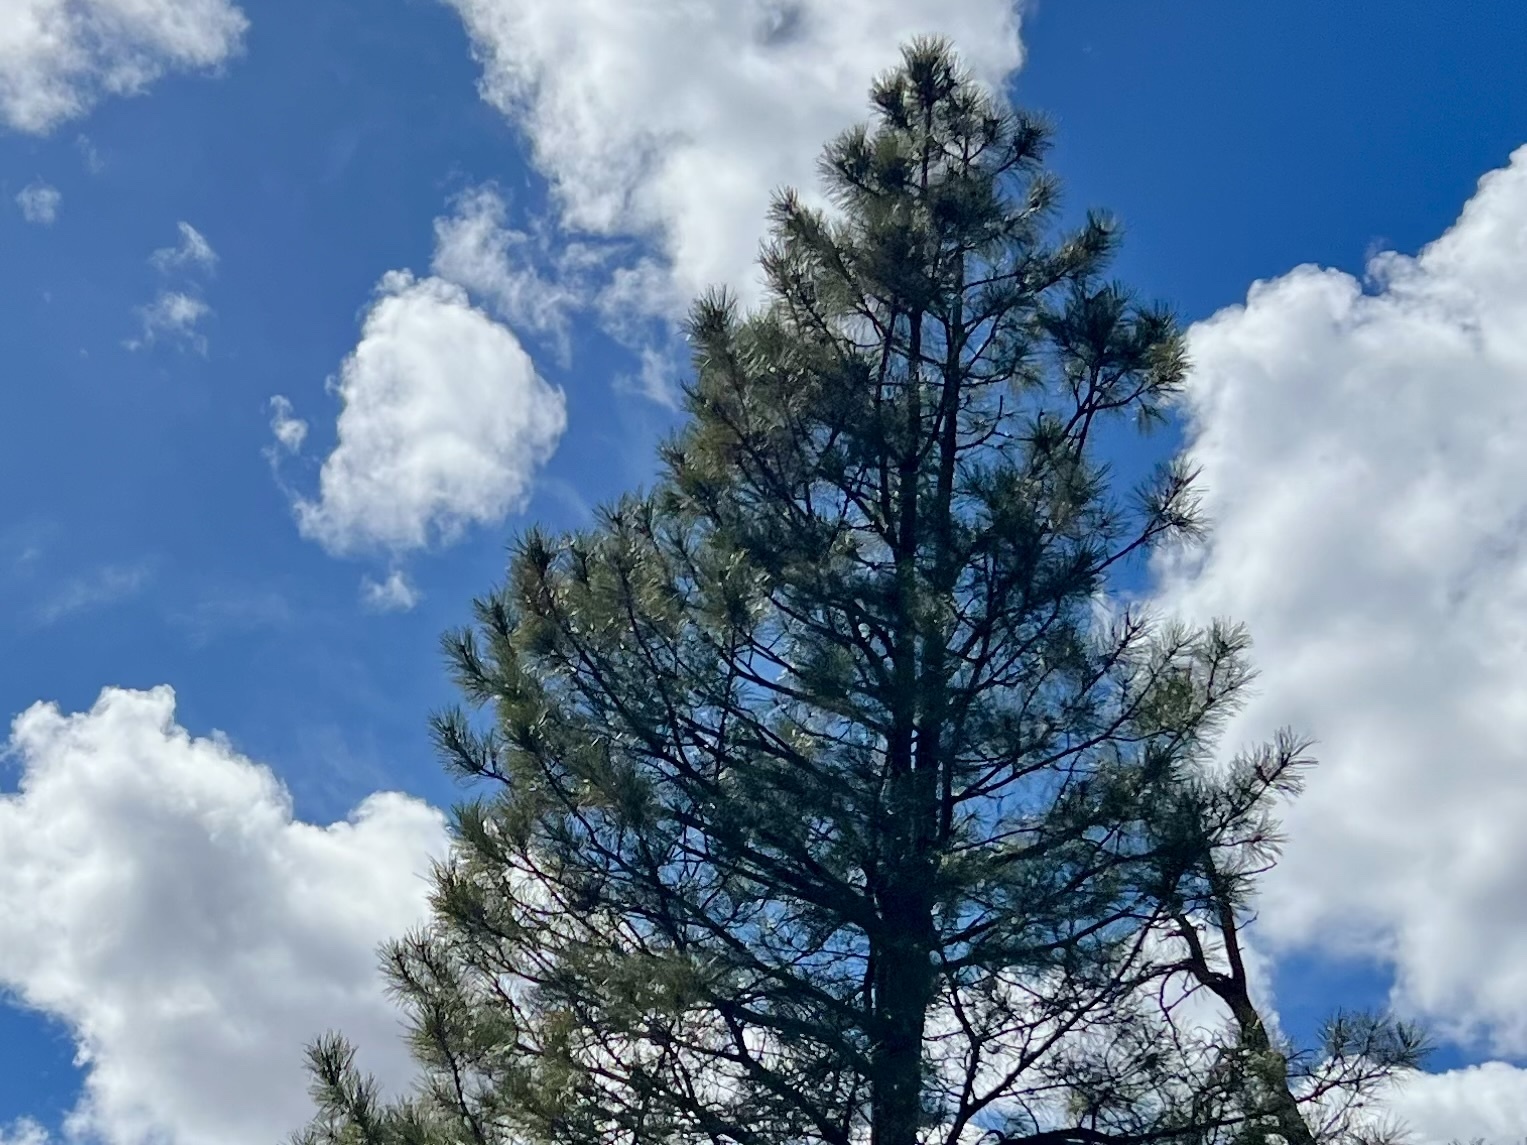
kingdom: Plantae
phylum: Tracheophyta
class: Pinopsida
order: Pinales
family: Pinaceae
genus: Pinus
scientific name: Pinus ponderosa
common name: Western yellow-pine
